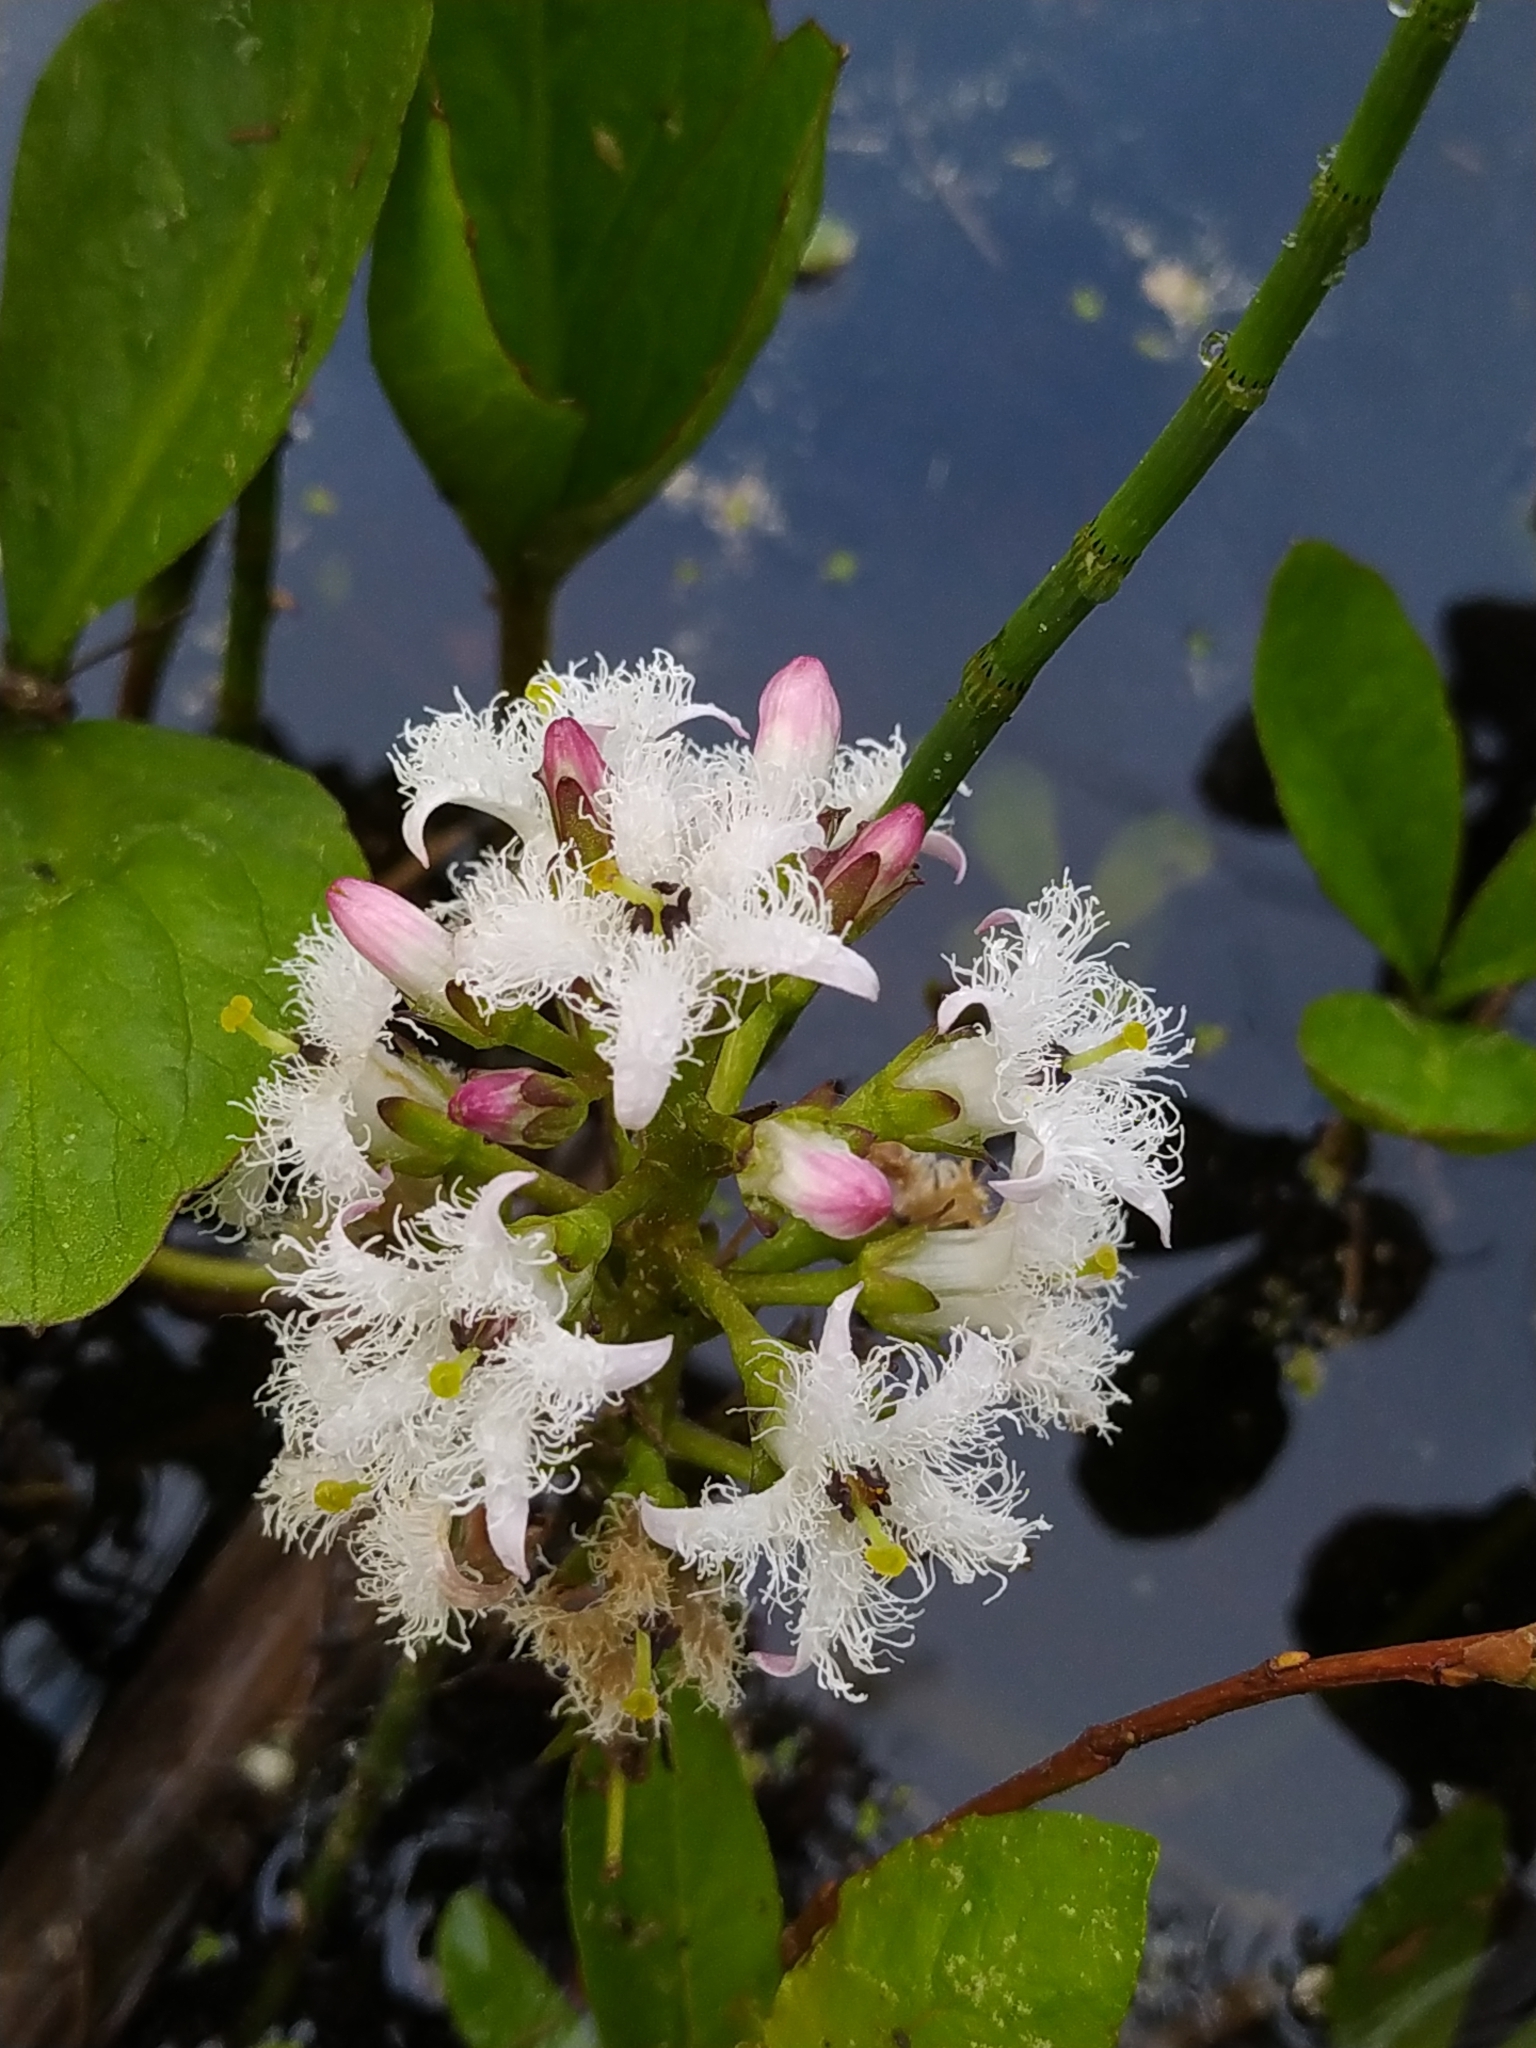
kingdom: Plantae
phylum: Tracheophyta
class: Magnoliopsida
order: Asterales
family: Menyanthaceae
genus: Menyanthes
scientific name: Menyanthes trifoliata
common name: Bogbean
